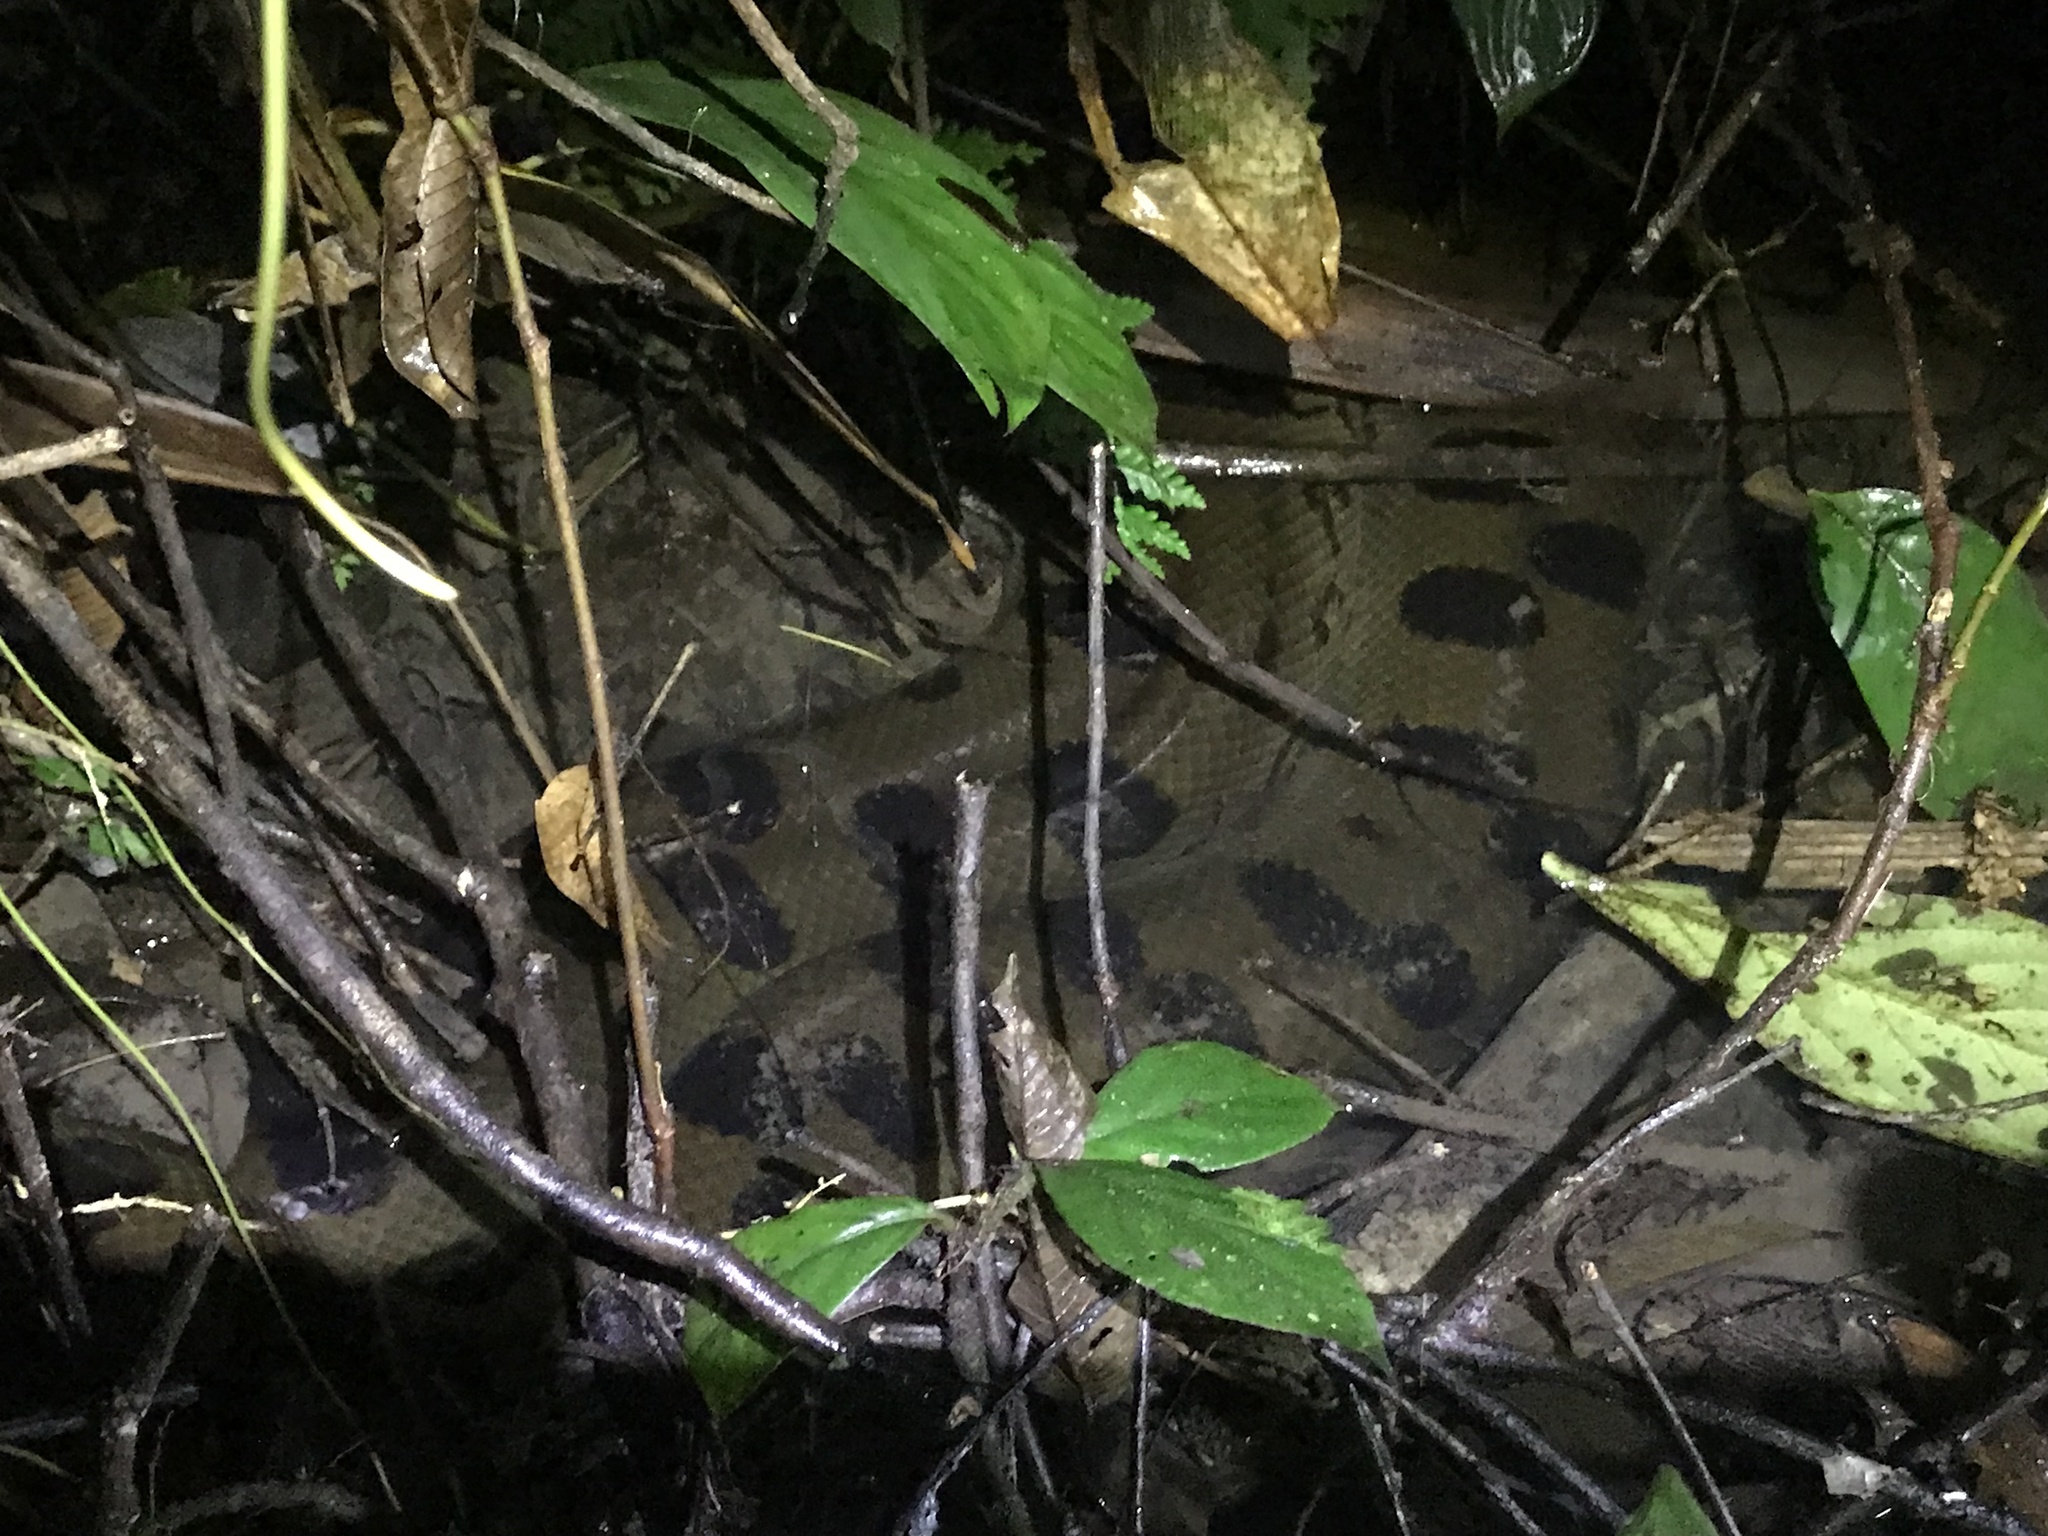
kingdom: Animalia
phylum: Chordata
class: Squamata
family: Boidae
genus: Eunectes
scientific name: Eunectes murinus
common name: Anaconda
